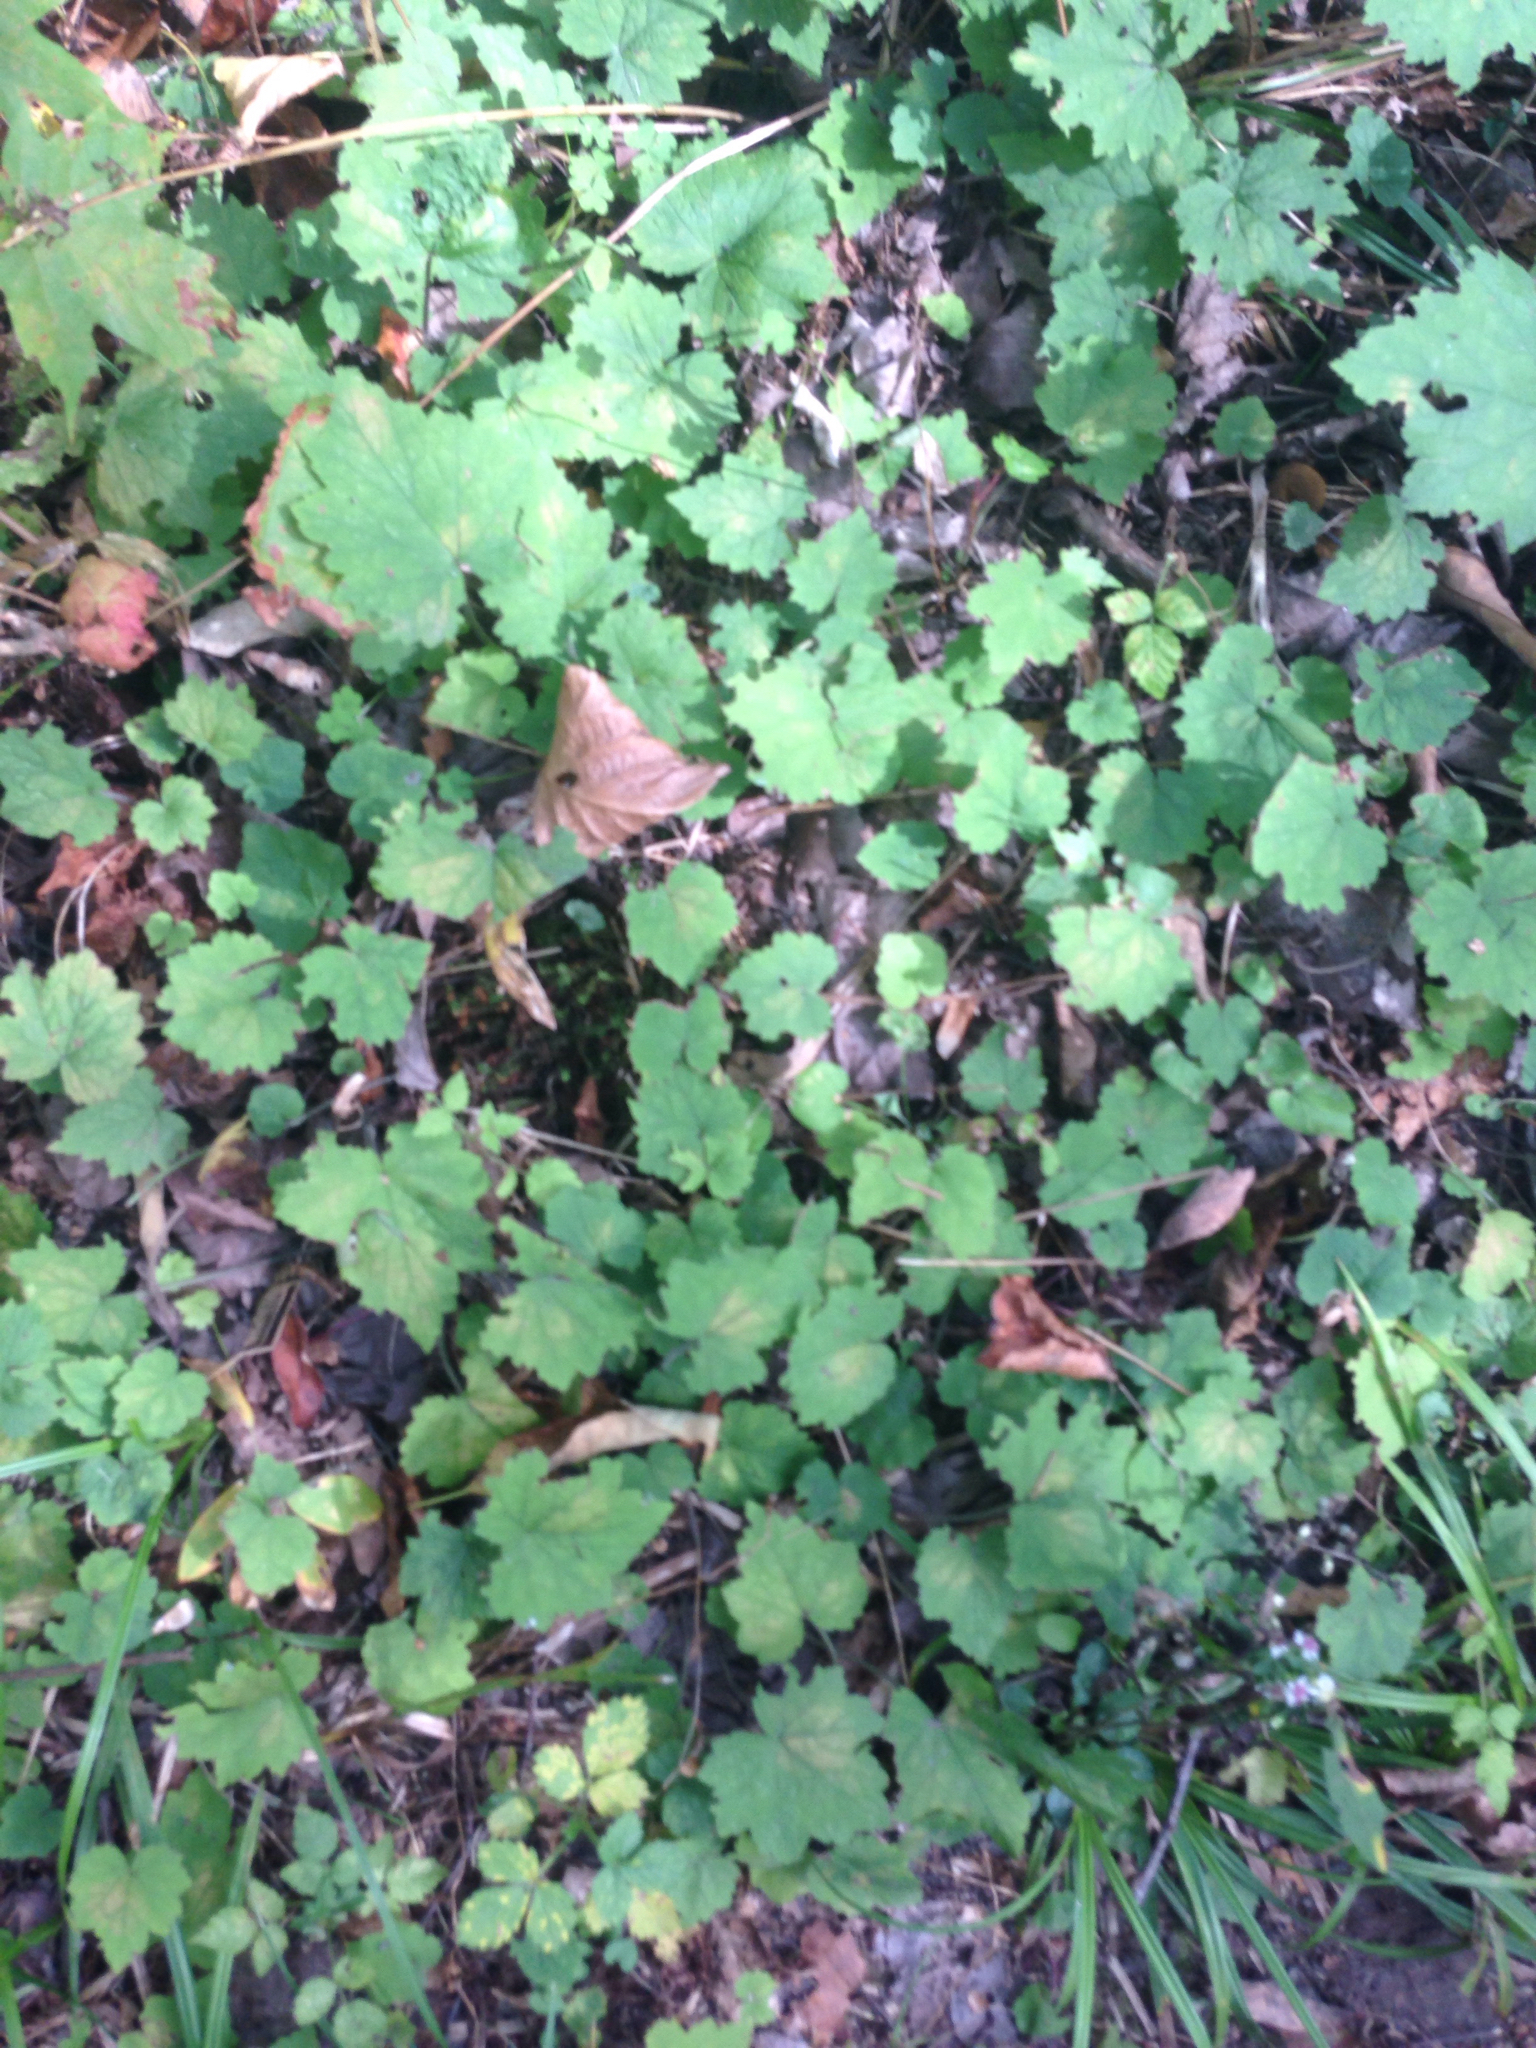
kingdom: Plantae
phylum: Tracheophyta
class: Magnoliopsida
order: Saxifragales
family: Saxifragaceae
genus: Tiarella
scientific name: Tiarella stolonifera
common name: Stoloniferous foamflower
